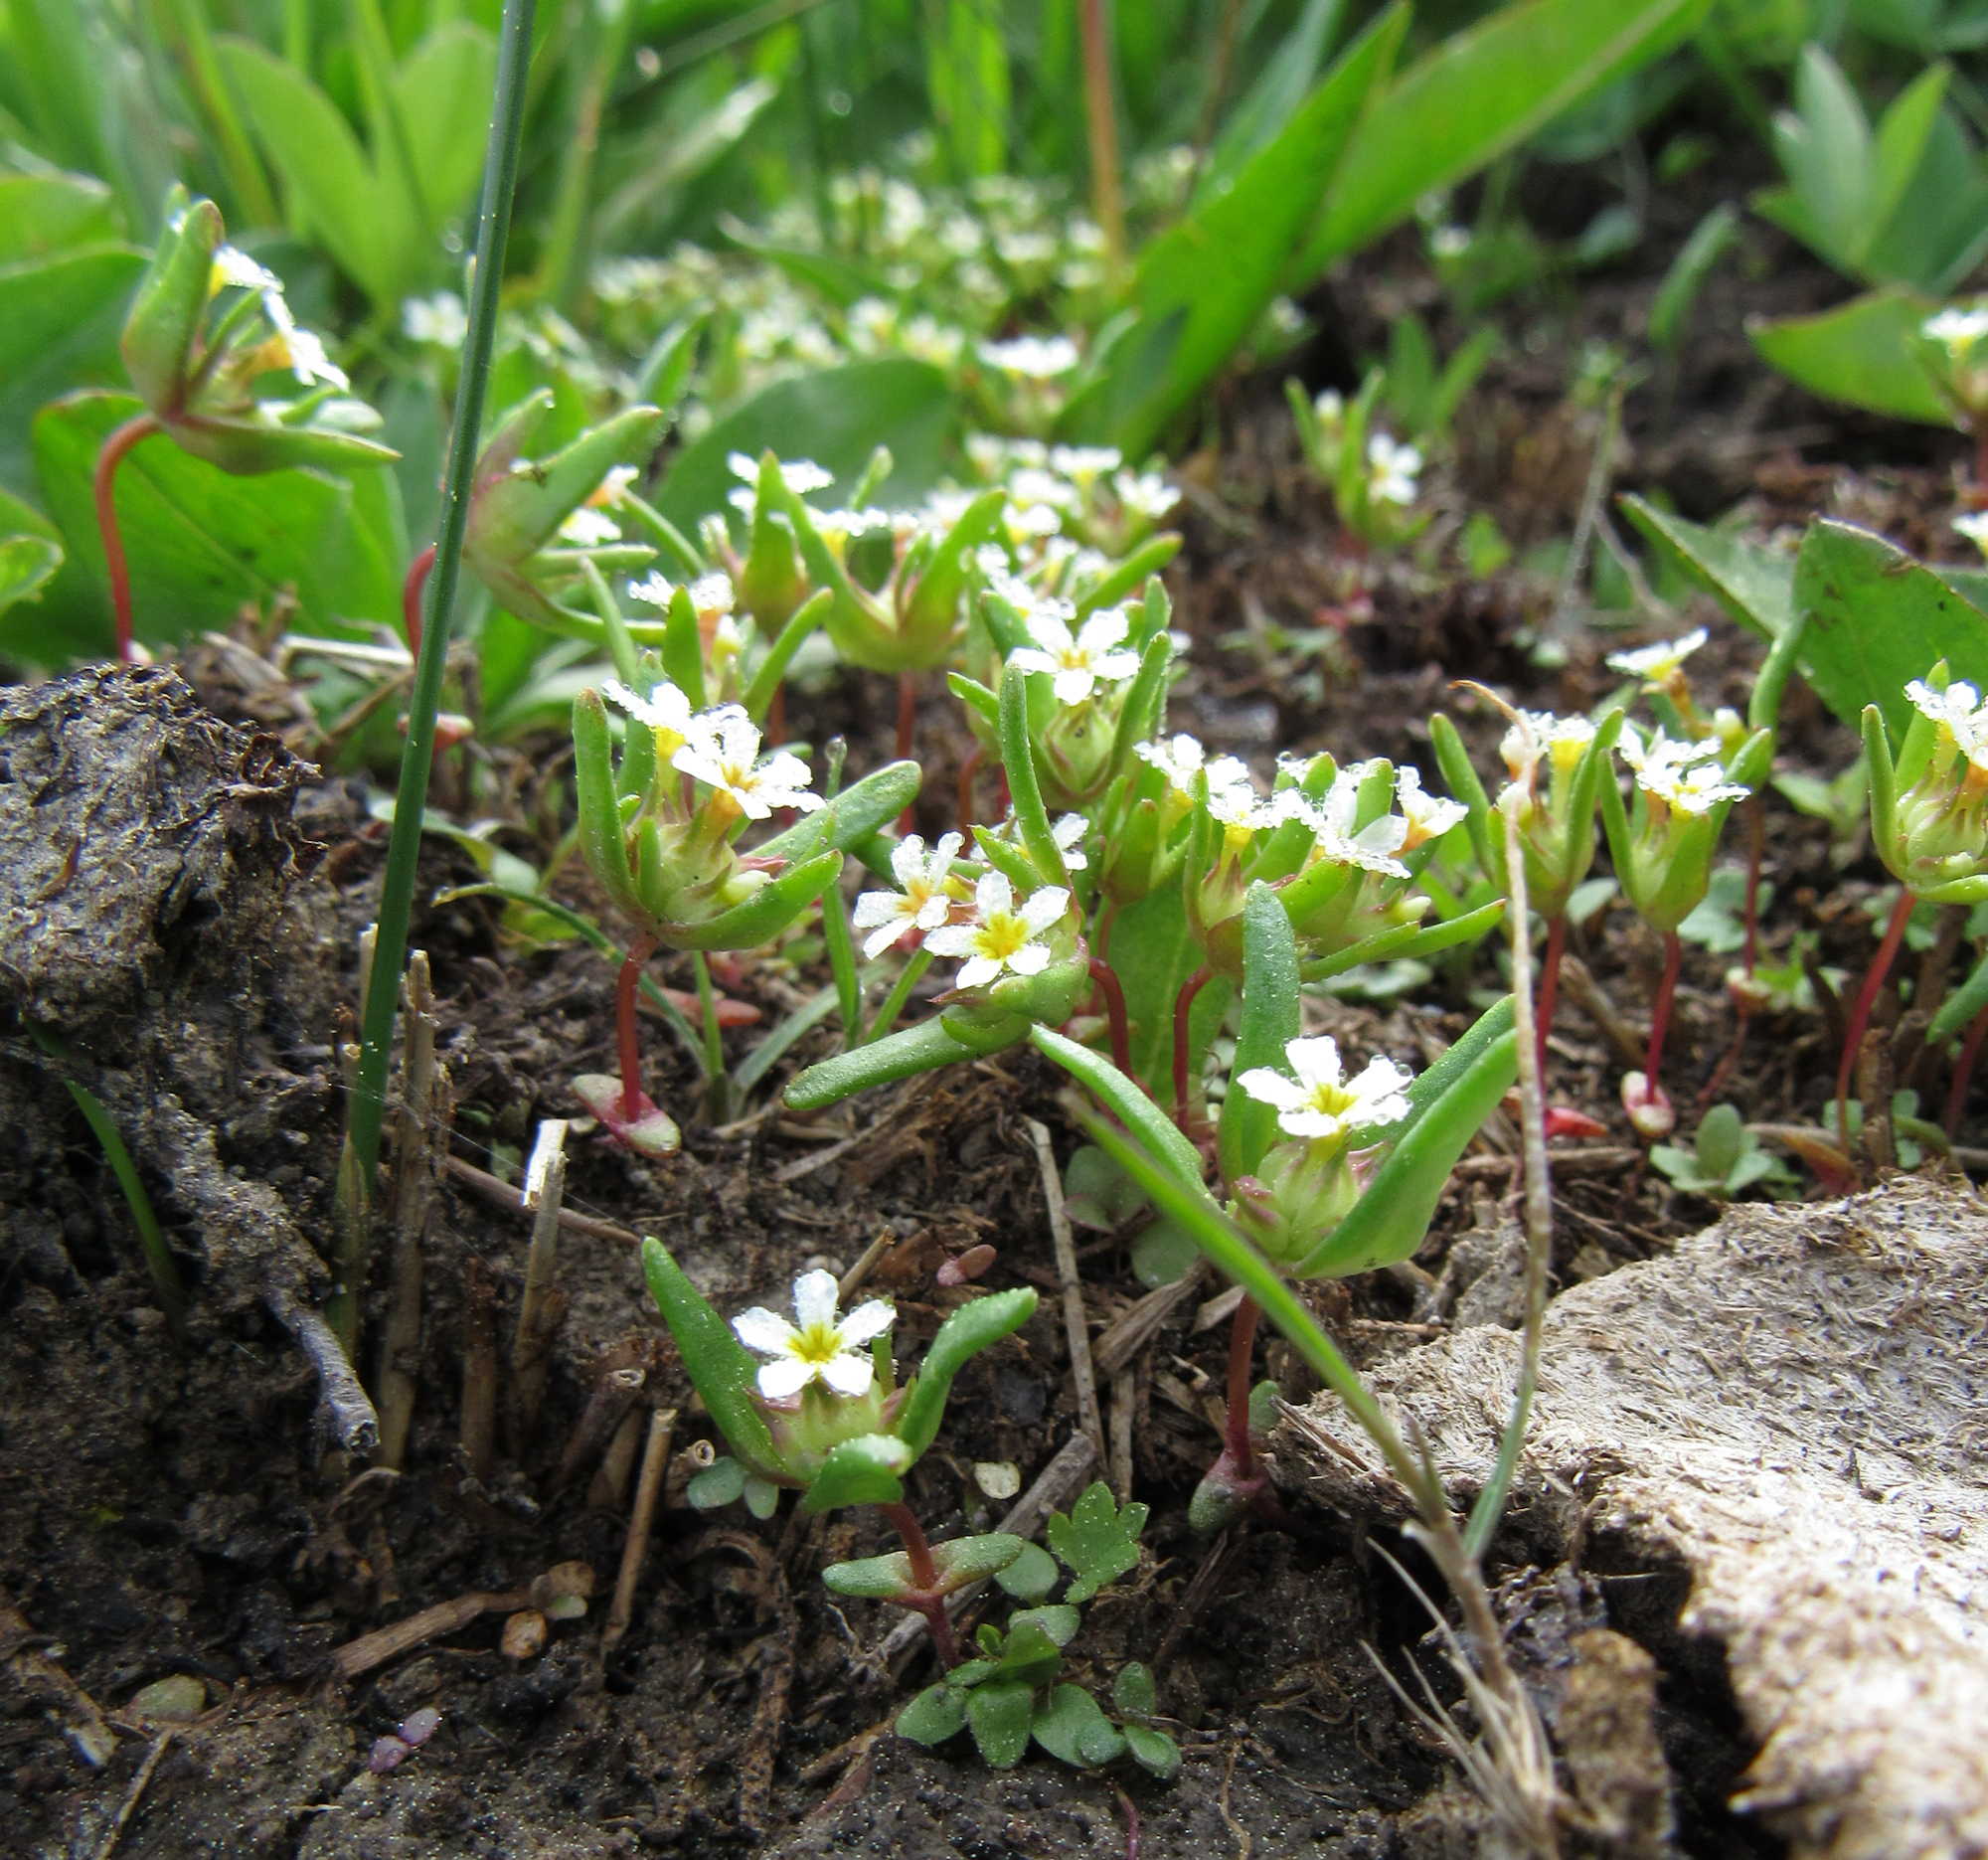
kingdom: Plantae
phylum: Tracheophyta
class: Magnoliopsida
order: Ericales
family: Polemoniaceae
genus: Gymnosteris
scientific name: Gymnosteris parvula
